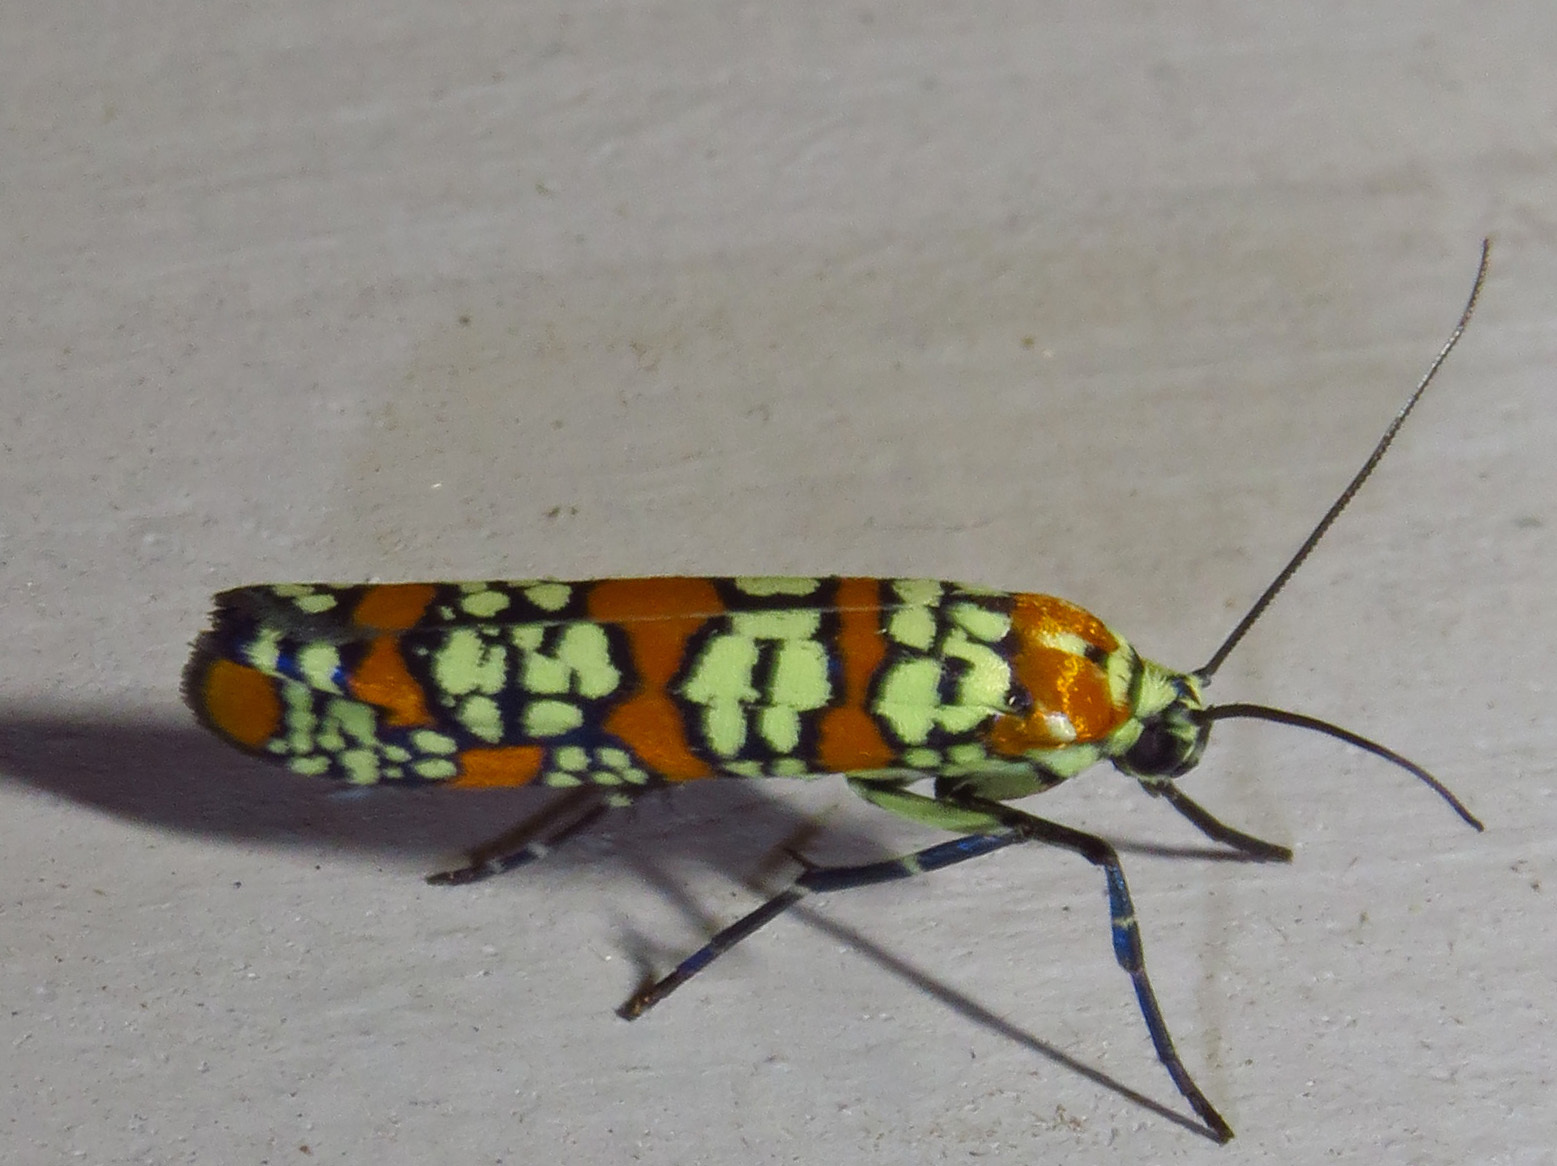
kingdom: Animalia
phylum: Arthropoda
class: Insecta
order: Lepidoptera
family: Attevidae
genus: Atteva
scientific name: Atteva punctella
